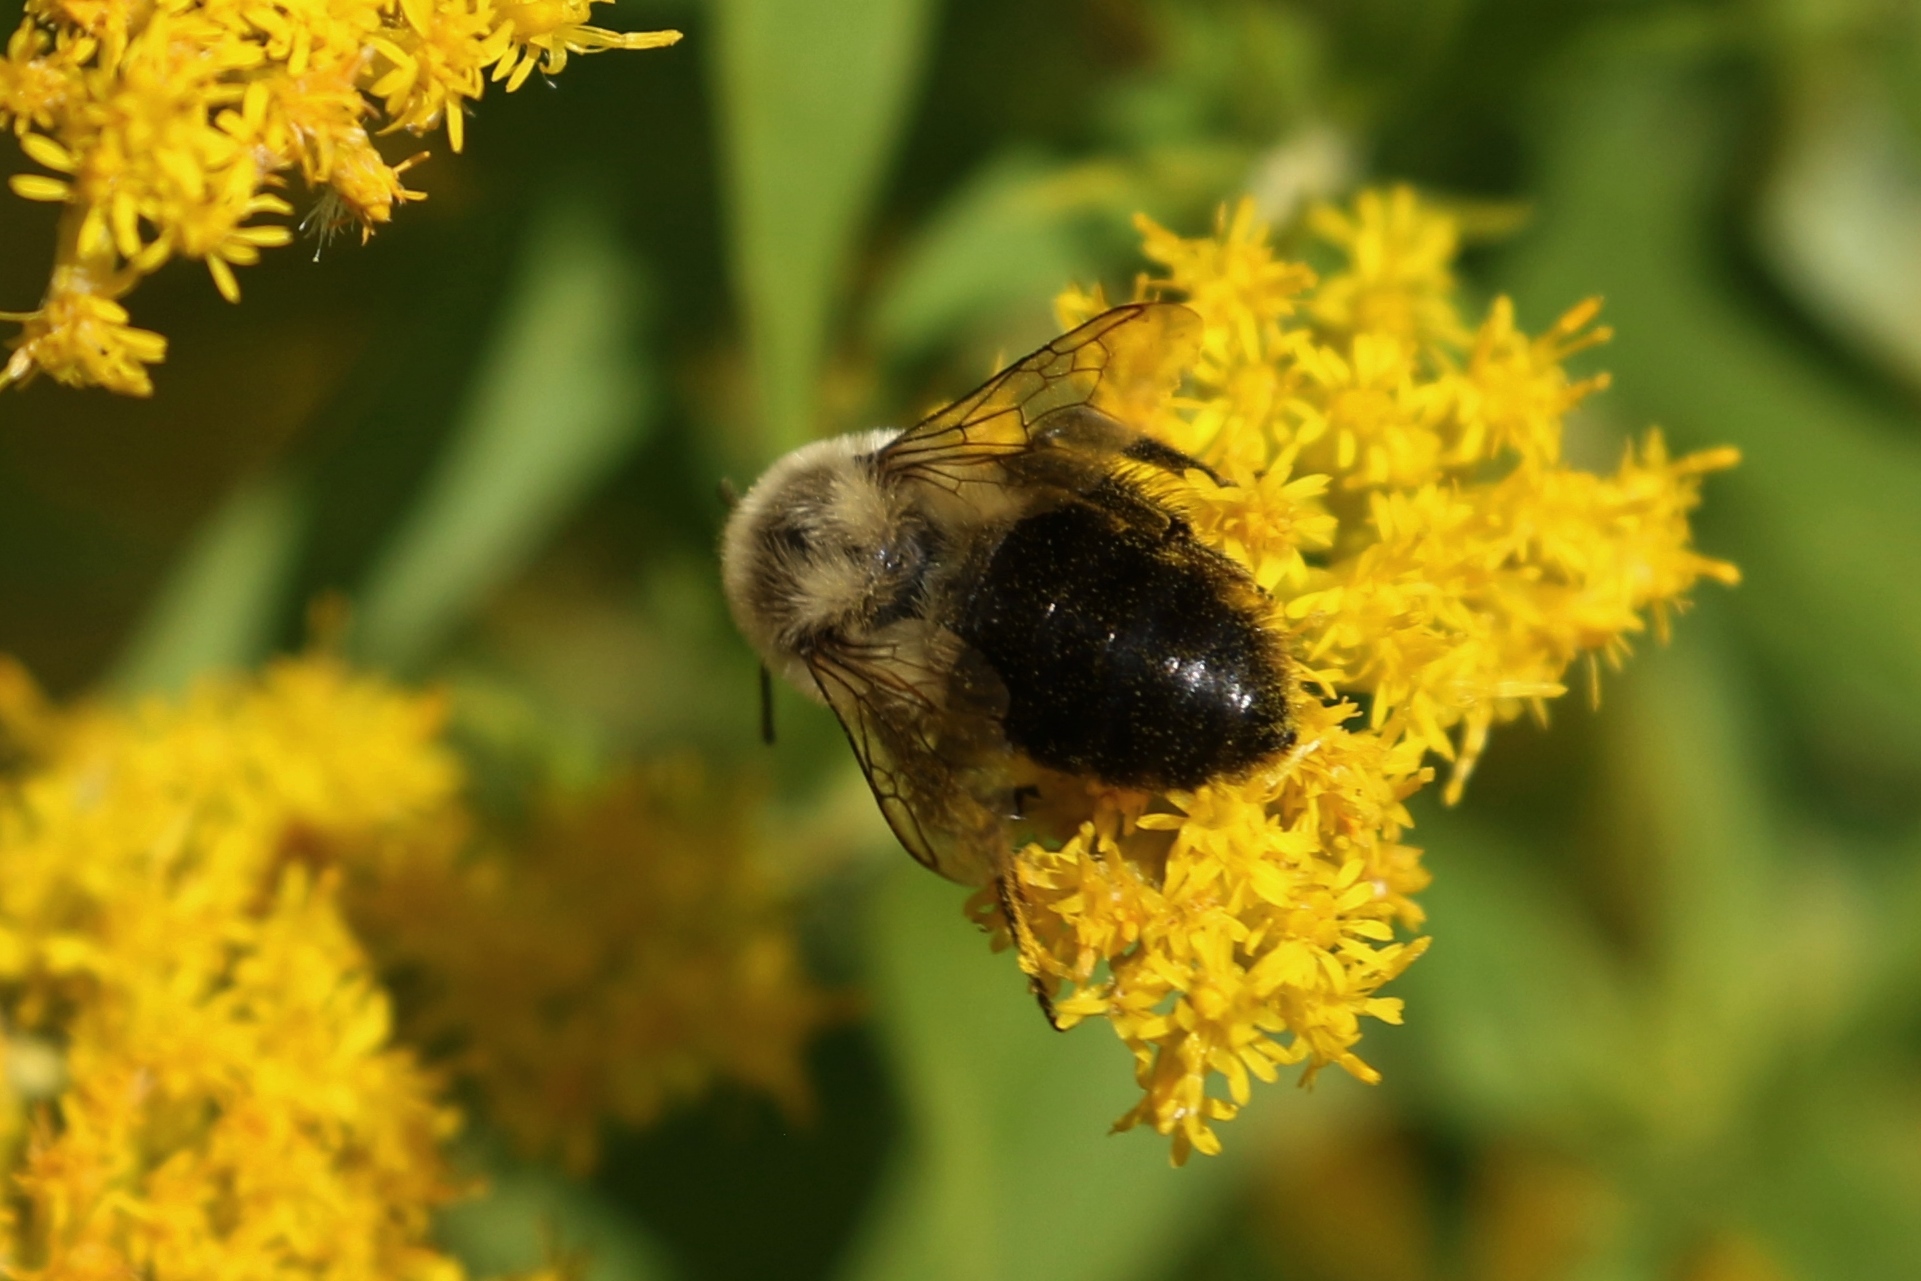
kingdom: Animalia
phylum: Arthropoda
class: Insecta
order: Hymenoptera
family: Apidae
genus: Bombus
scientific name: Bombus impatiens
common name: Common eastern bumble bee
